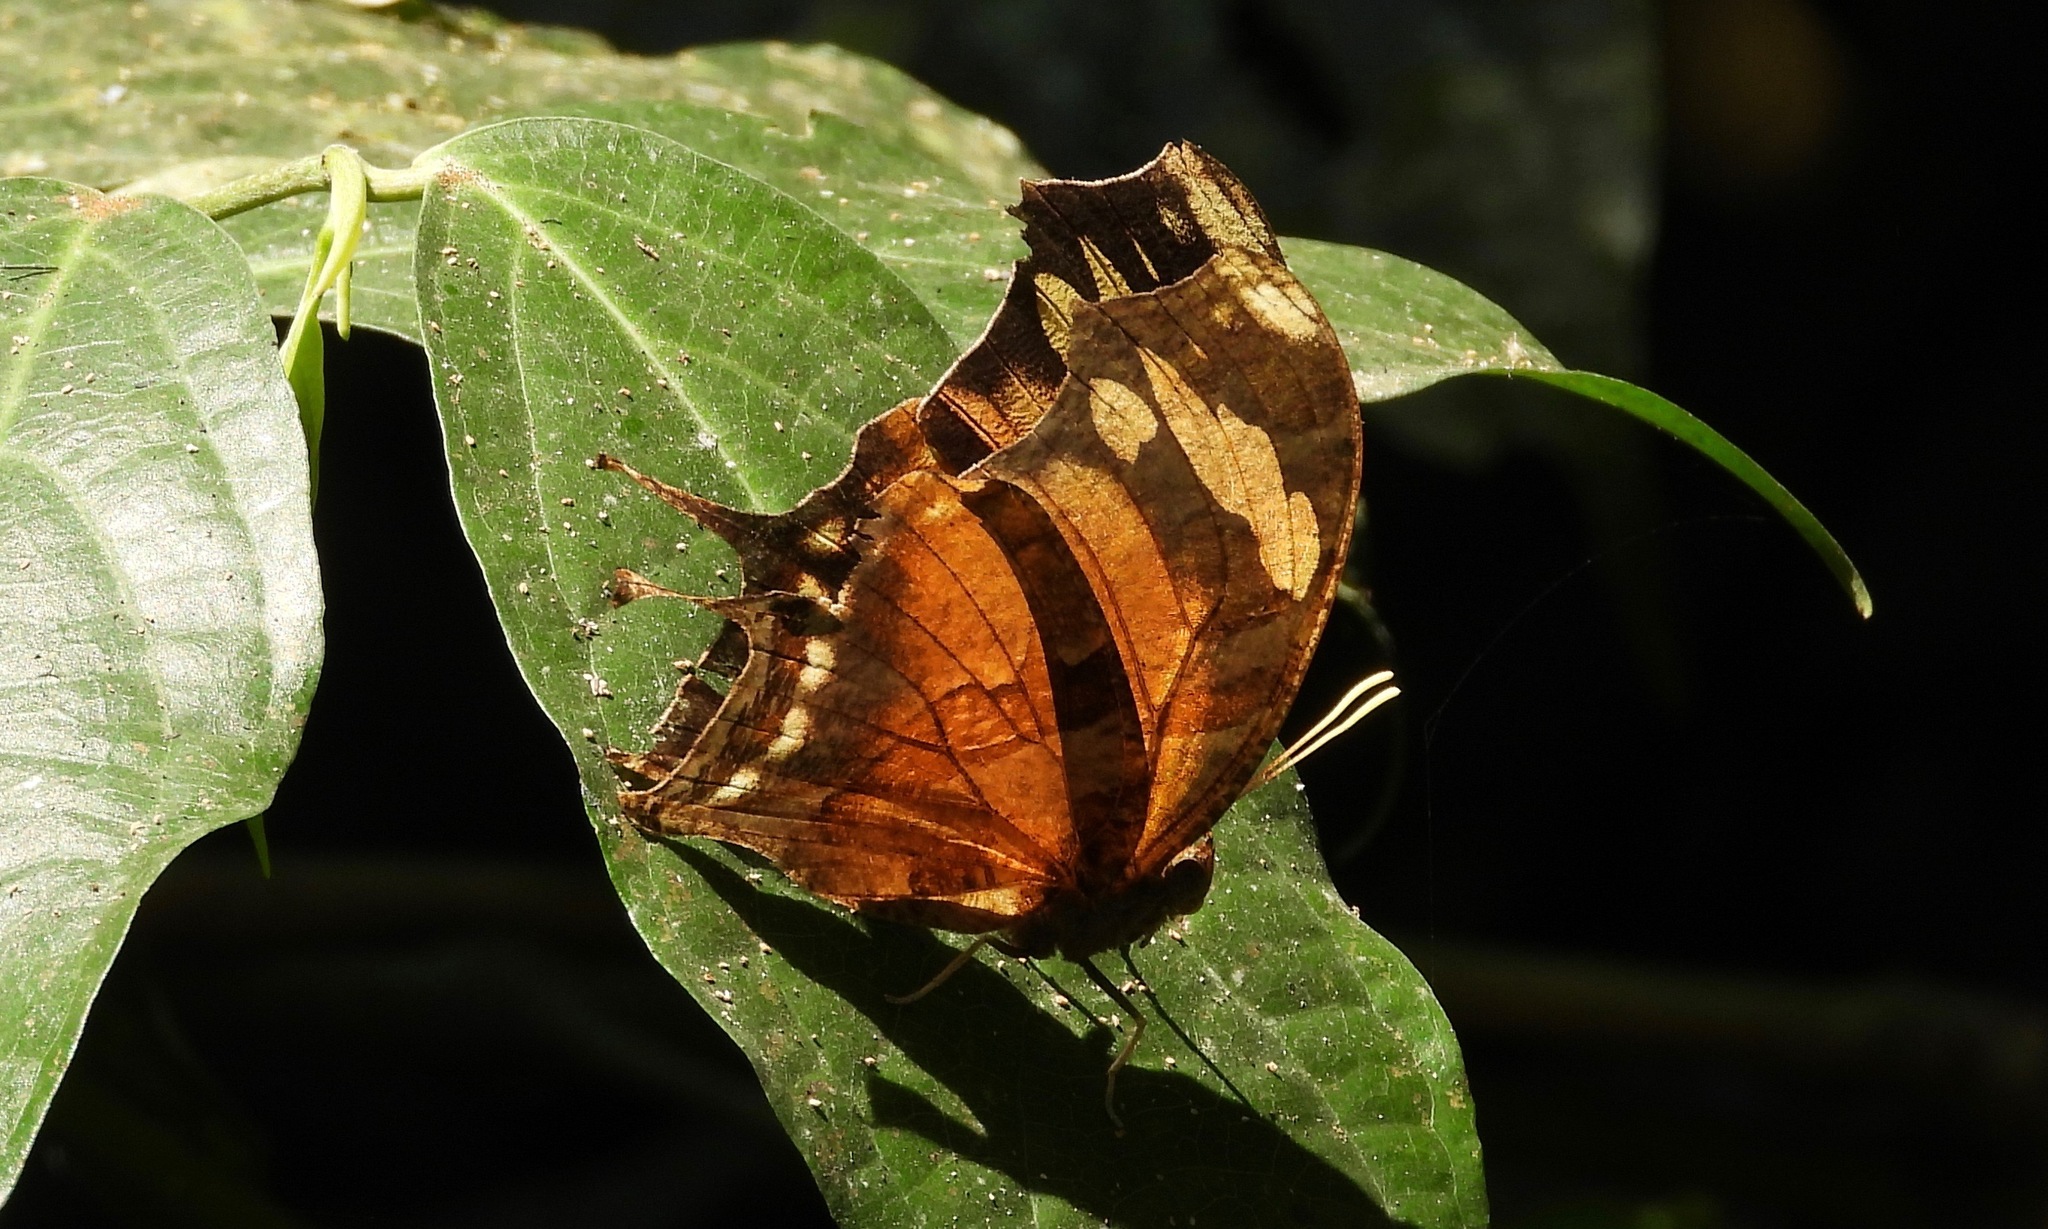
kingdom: Animalia
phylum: Arthropoda
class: Insecta
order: Lepidoptera
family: Nymphalidae
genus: Consul
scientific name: Consul fabius
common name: Tiger leafwing
